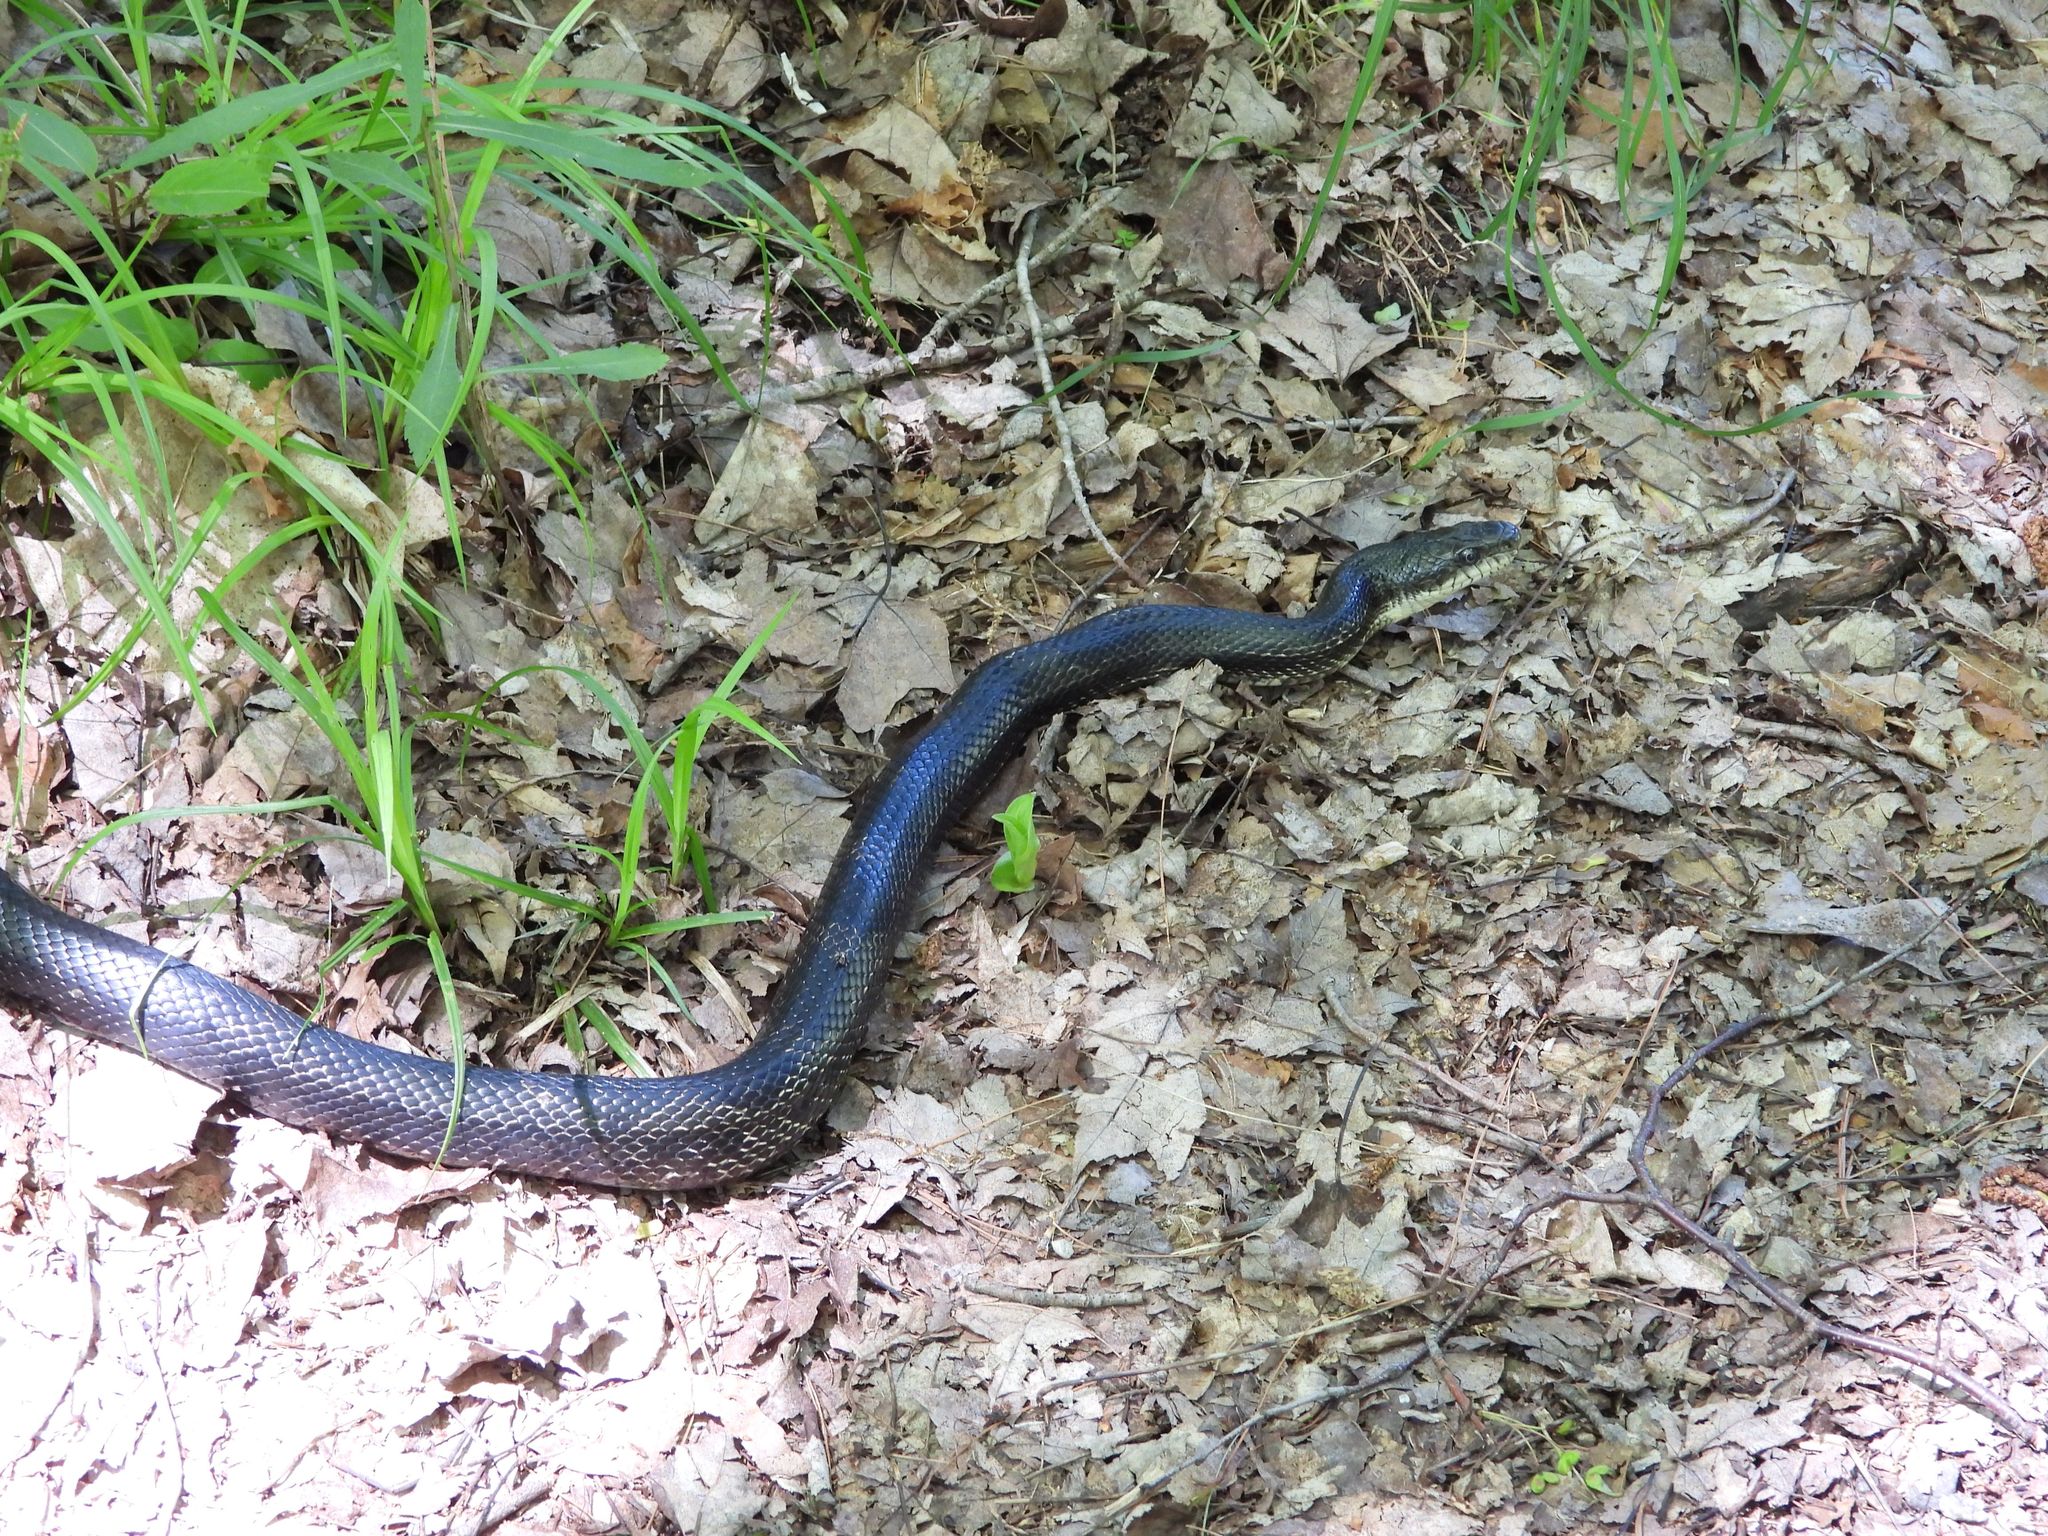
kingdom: Animalia
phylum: Chordata
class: Squamata
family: Colubridae
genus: Pantherophis
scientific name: Pantherophis spiloides
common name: Gray rat snake
